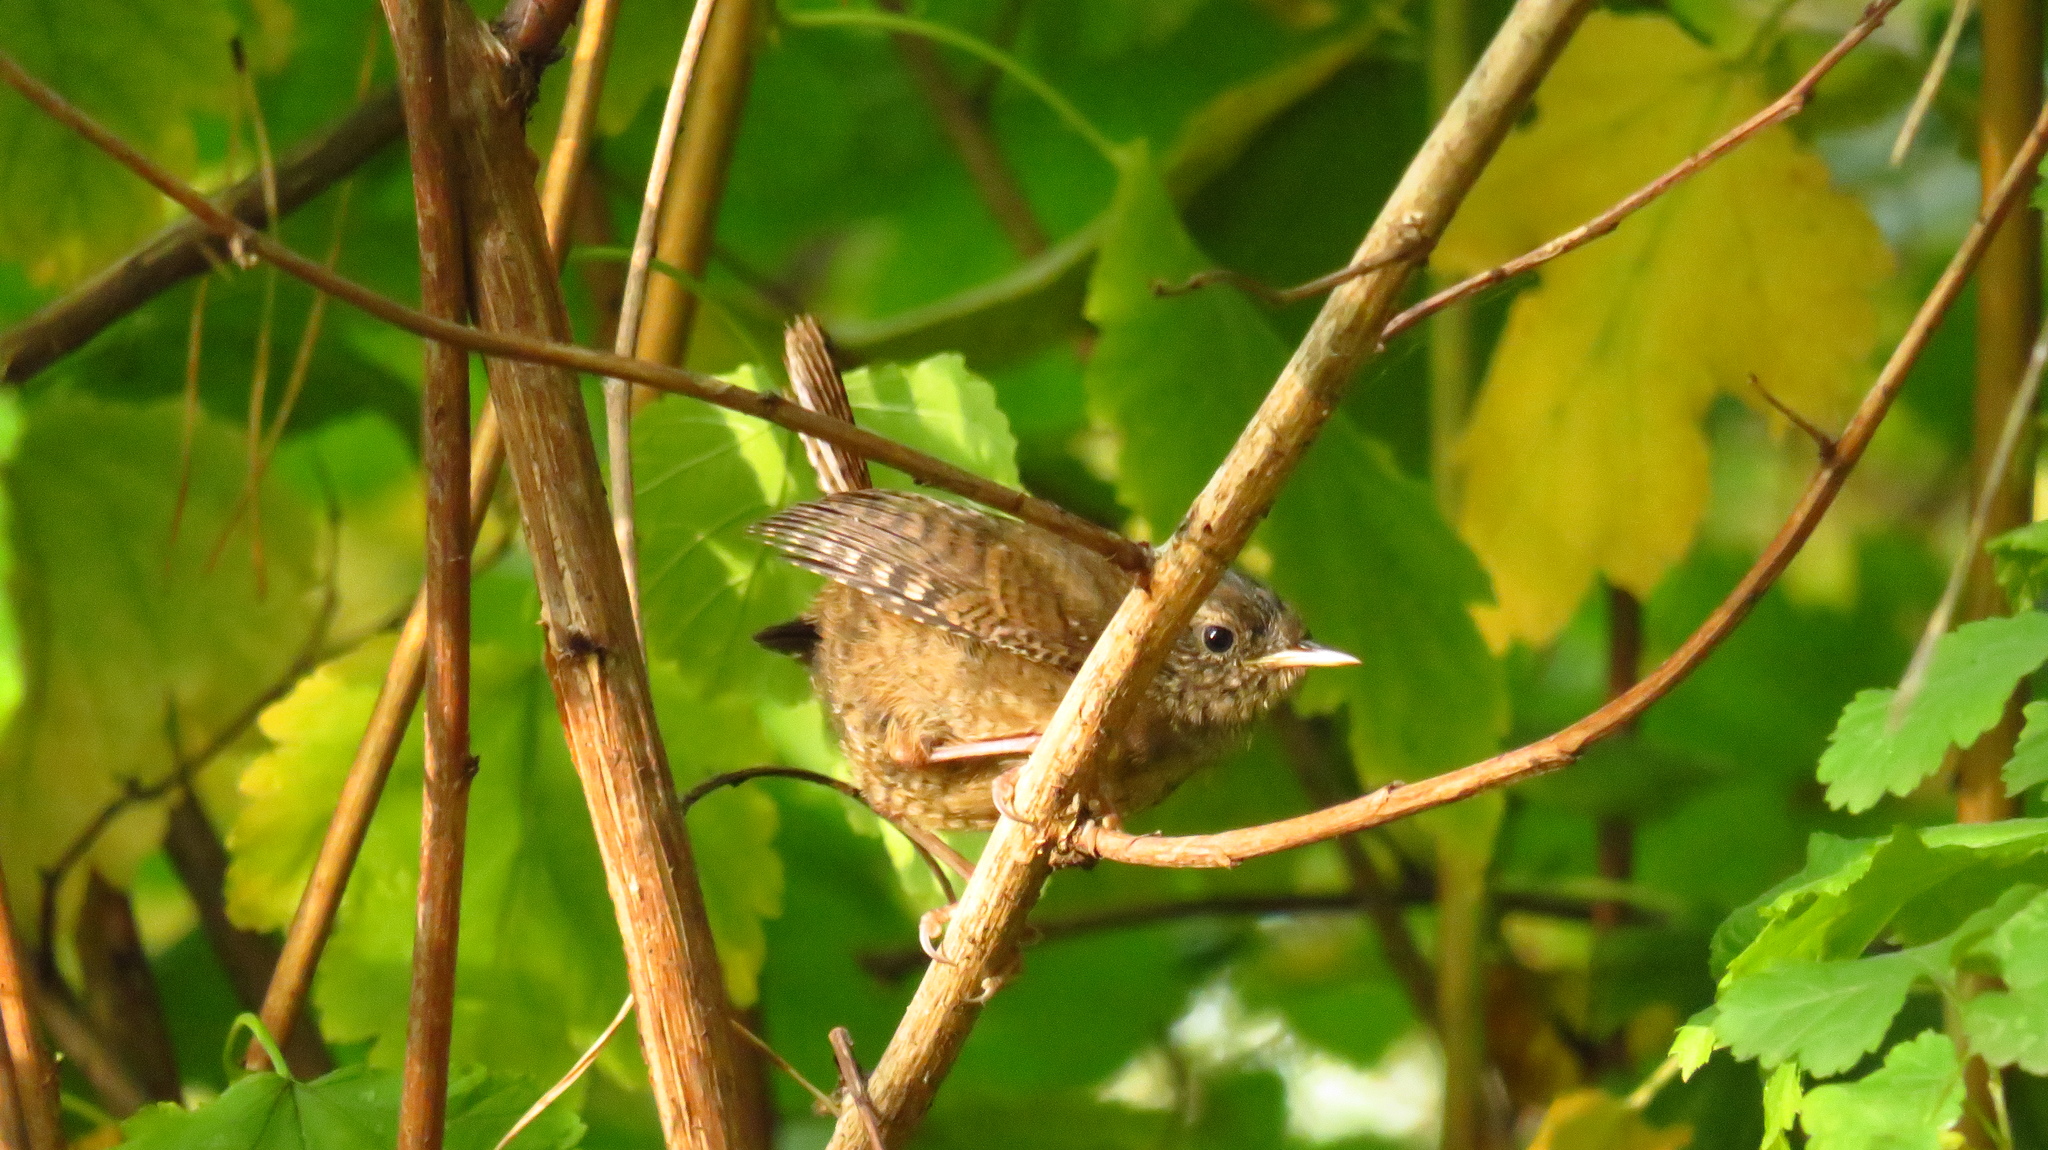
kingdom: Animalia
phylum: Chordata
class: Aves
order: Passeriformes
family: Troglodytidae
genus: Troglodytes
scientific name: Troglodytes troglodytes
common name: Eurasian wren
